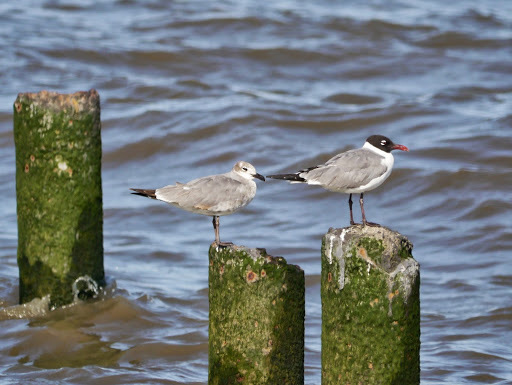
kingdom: Animalia
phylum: Chordata
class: Aves
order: Charadriiformes
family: Laridae
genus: Leucophaeus
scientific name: Leucophaeus atricilla
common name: Laughing gull
